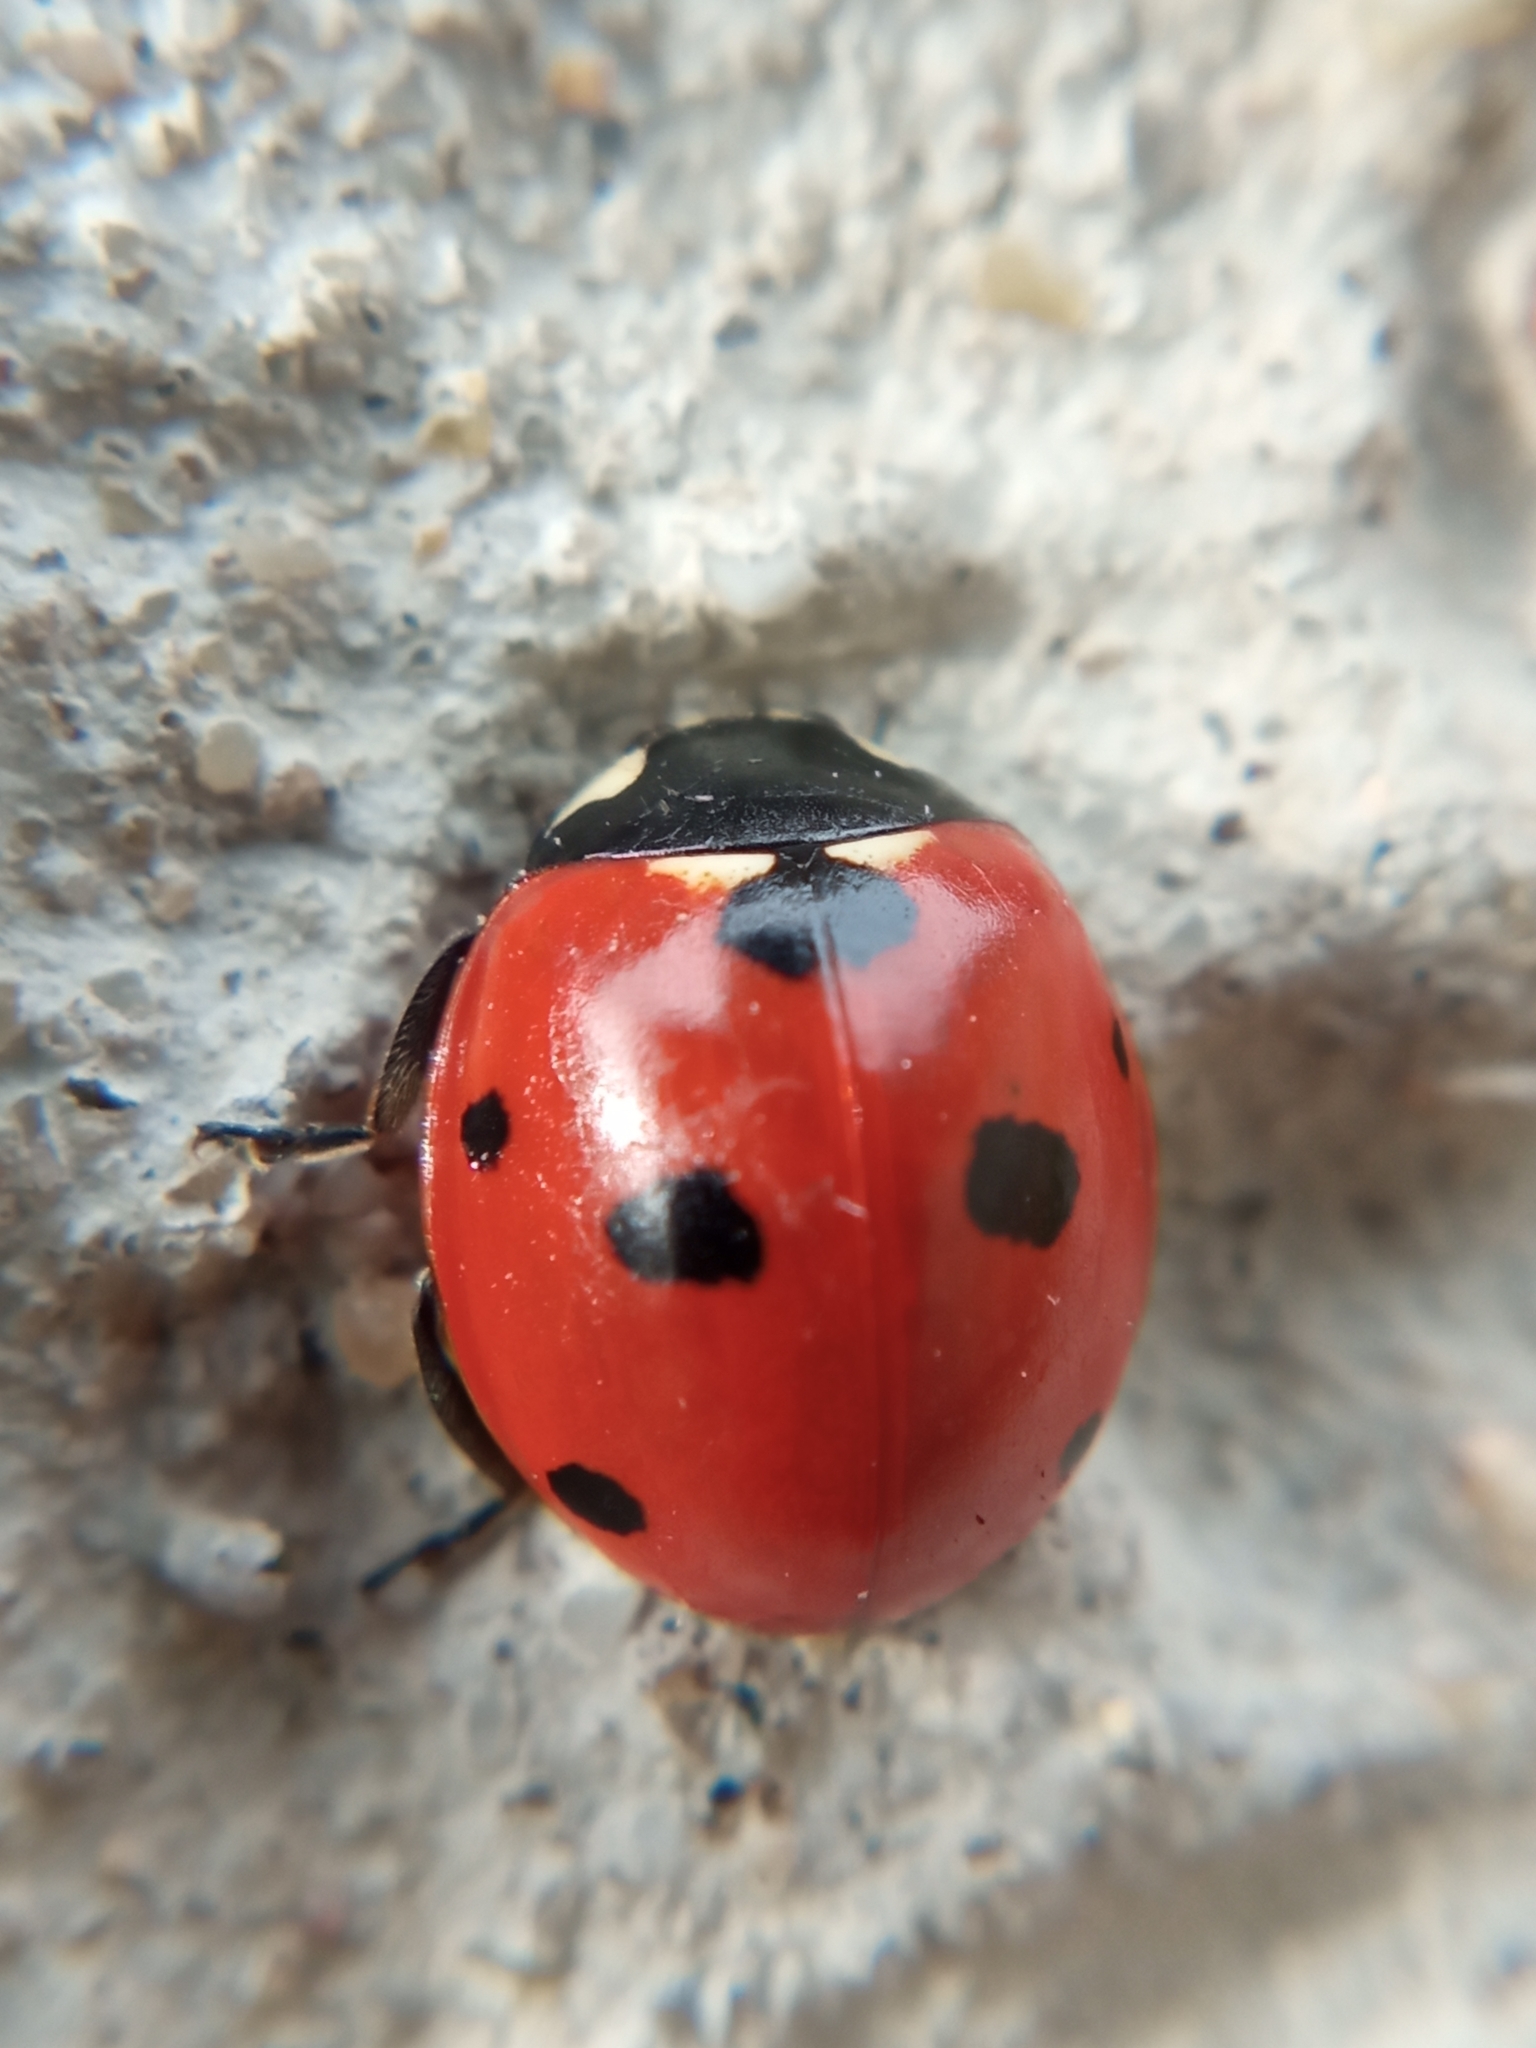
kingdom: Animalia
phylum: Arthropoda
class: Insecta
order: Coleoptera
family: Coccinellidae
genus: Coccinella
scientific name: Coccinella septempunctata
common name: Sevenspotted lady beetle
